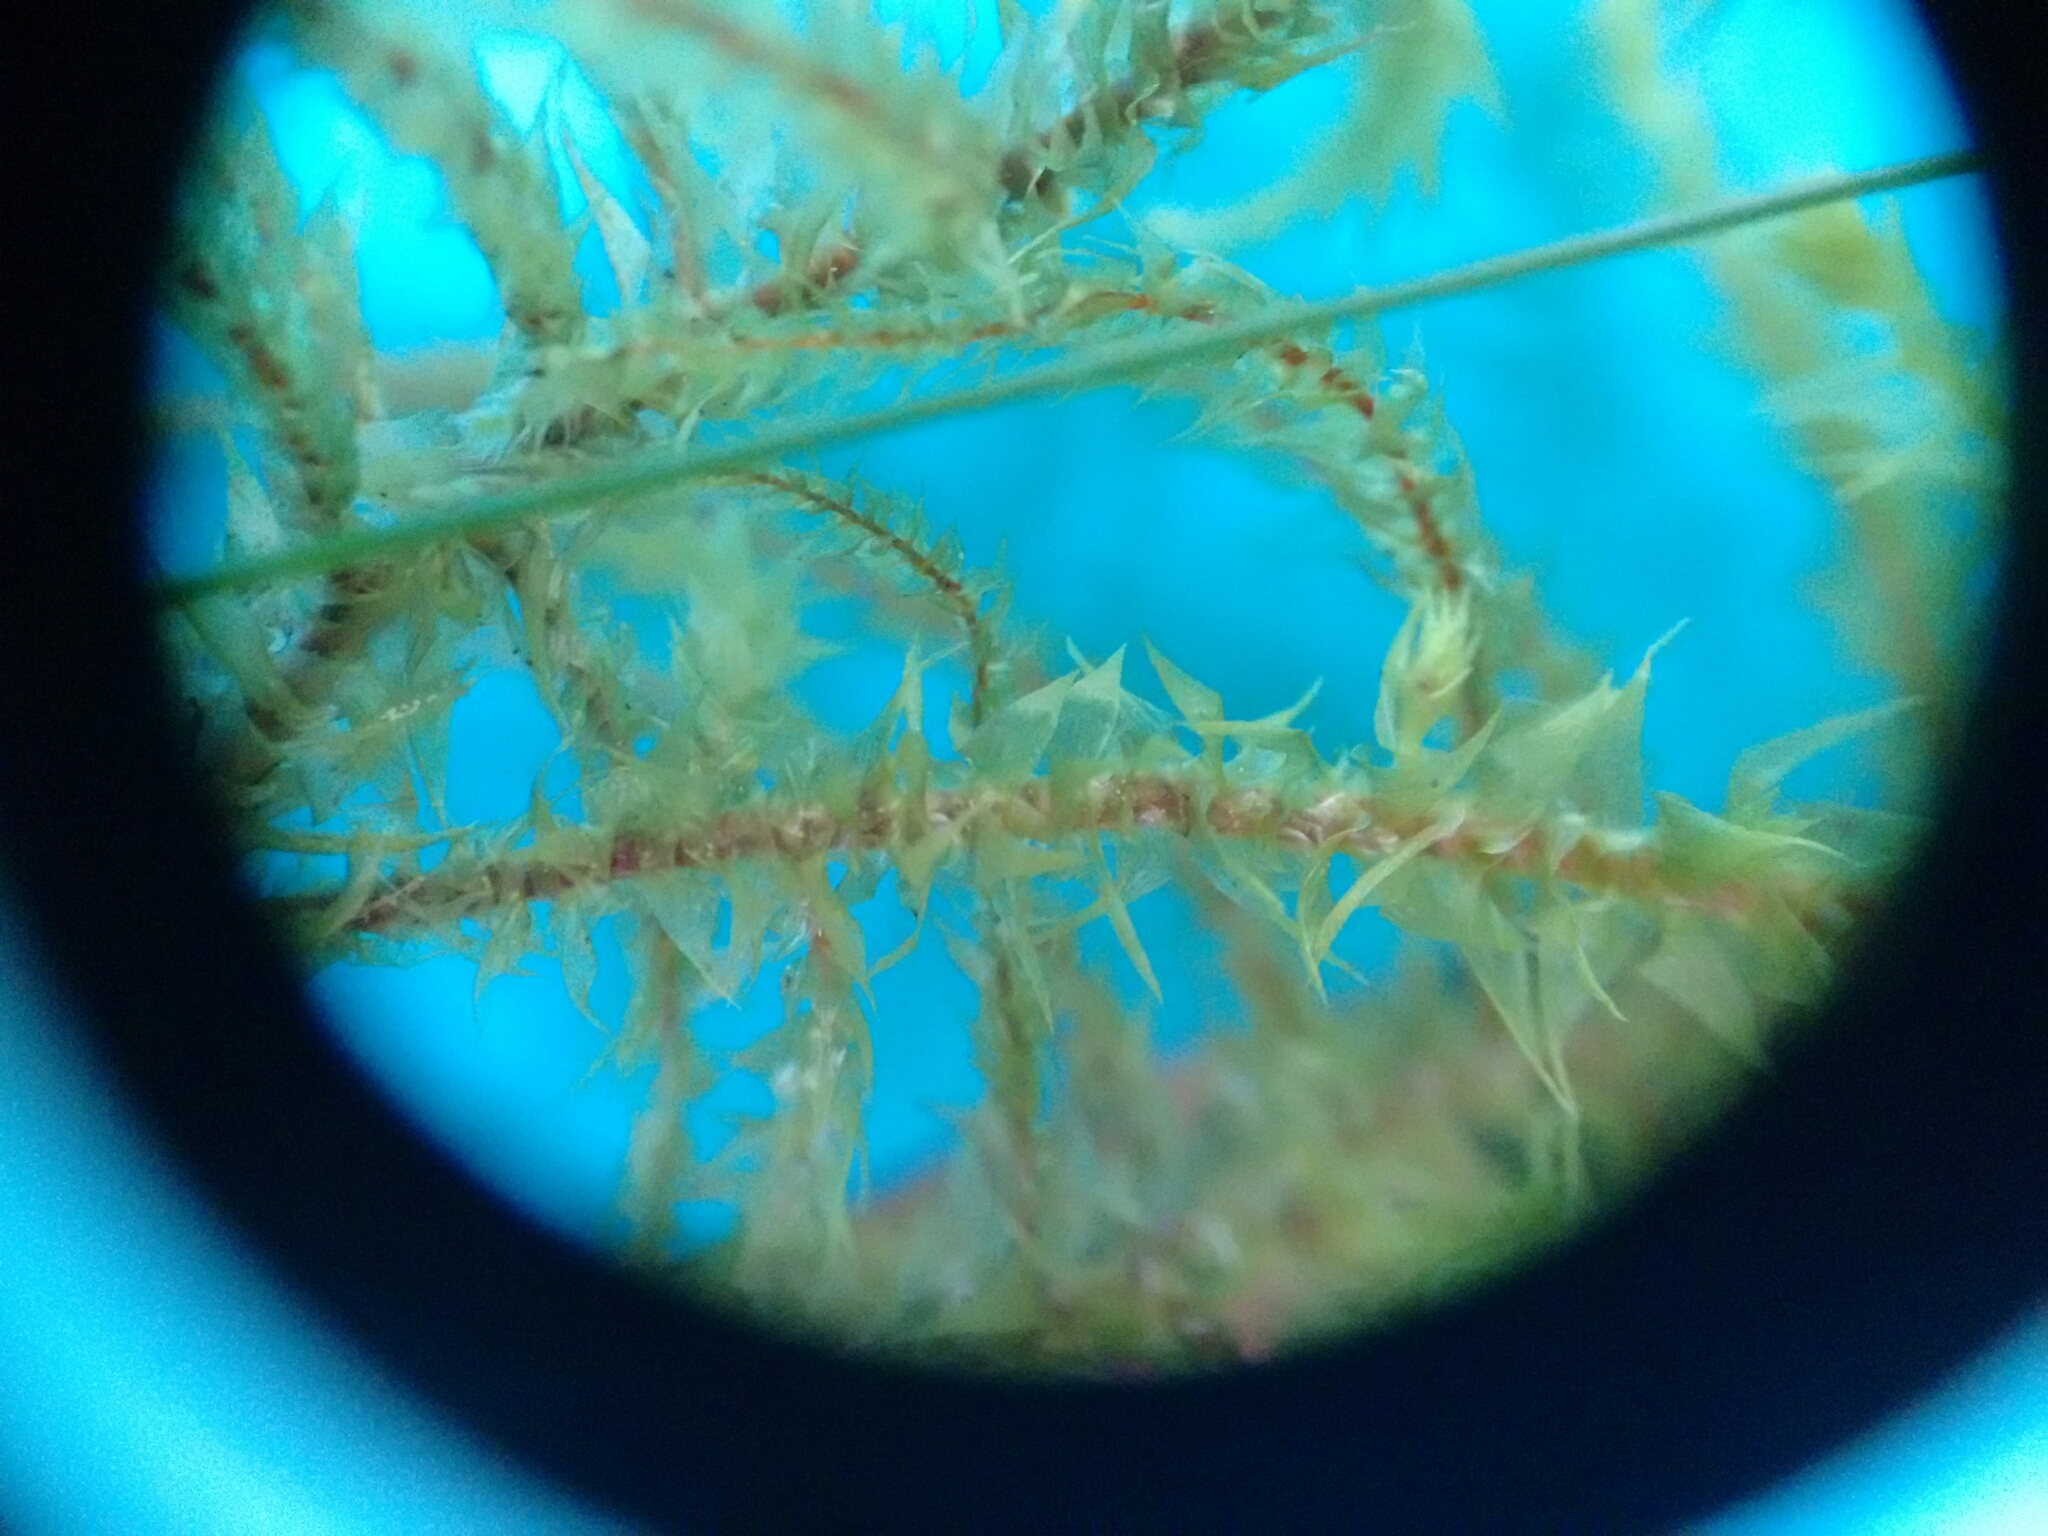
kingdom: Plantae
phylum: Bryophyta
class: Bryopsida
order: Hypnales
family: Hylocomiaceae
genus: Hylocomiadelphus
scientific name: Hylocomiadelphus triquetrus
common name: Rough goose neck moss
